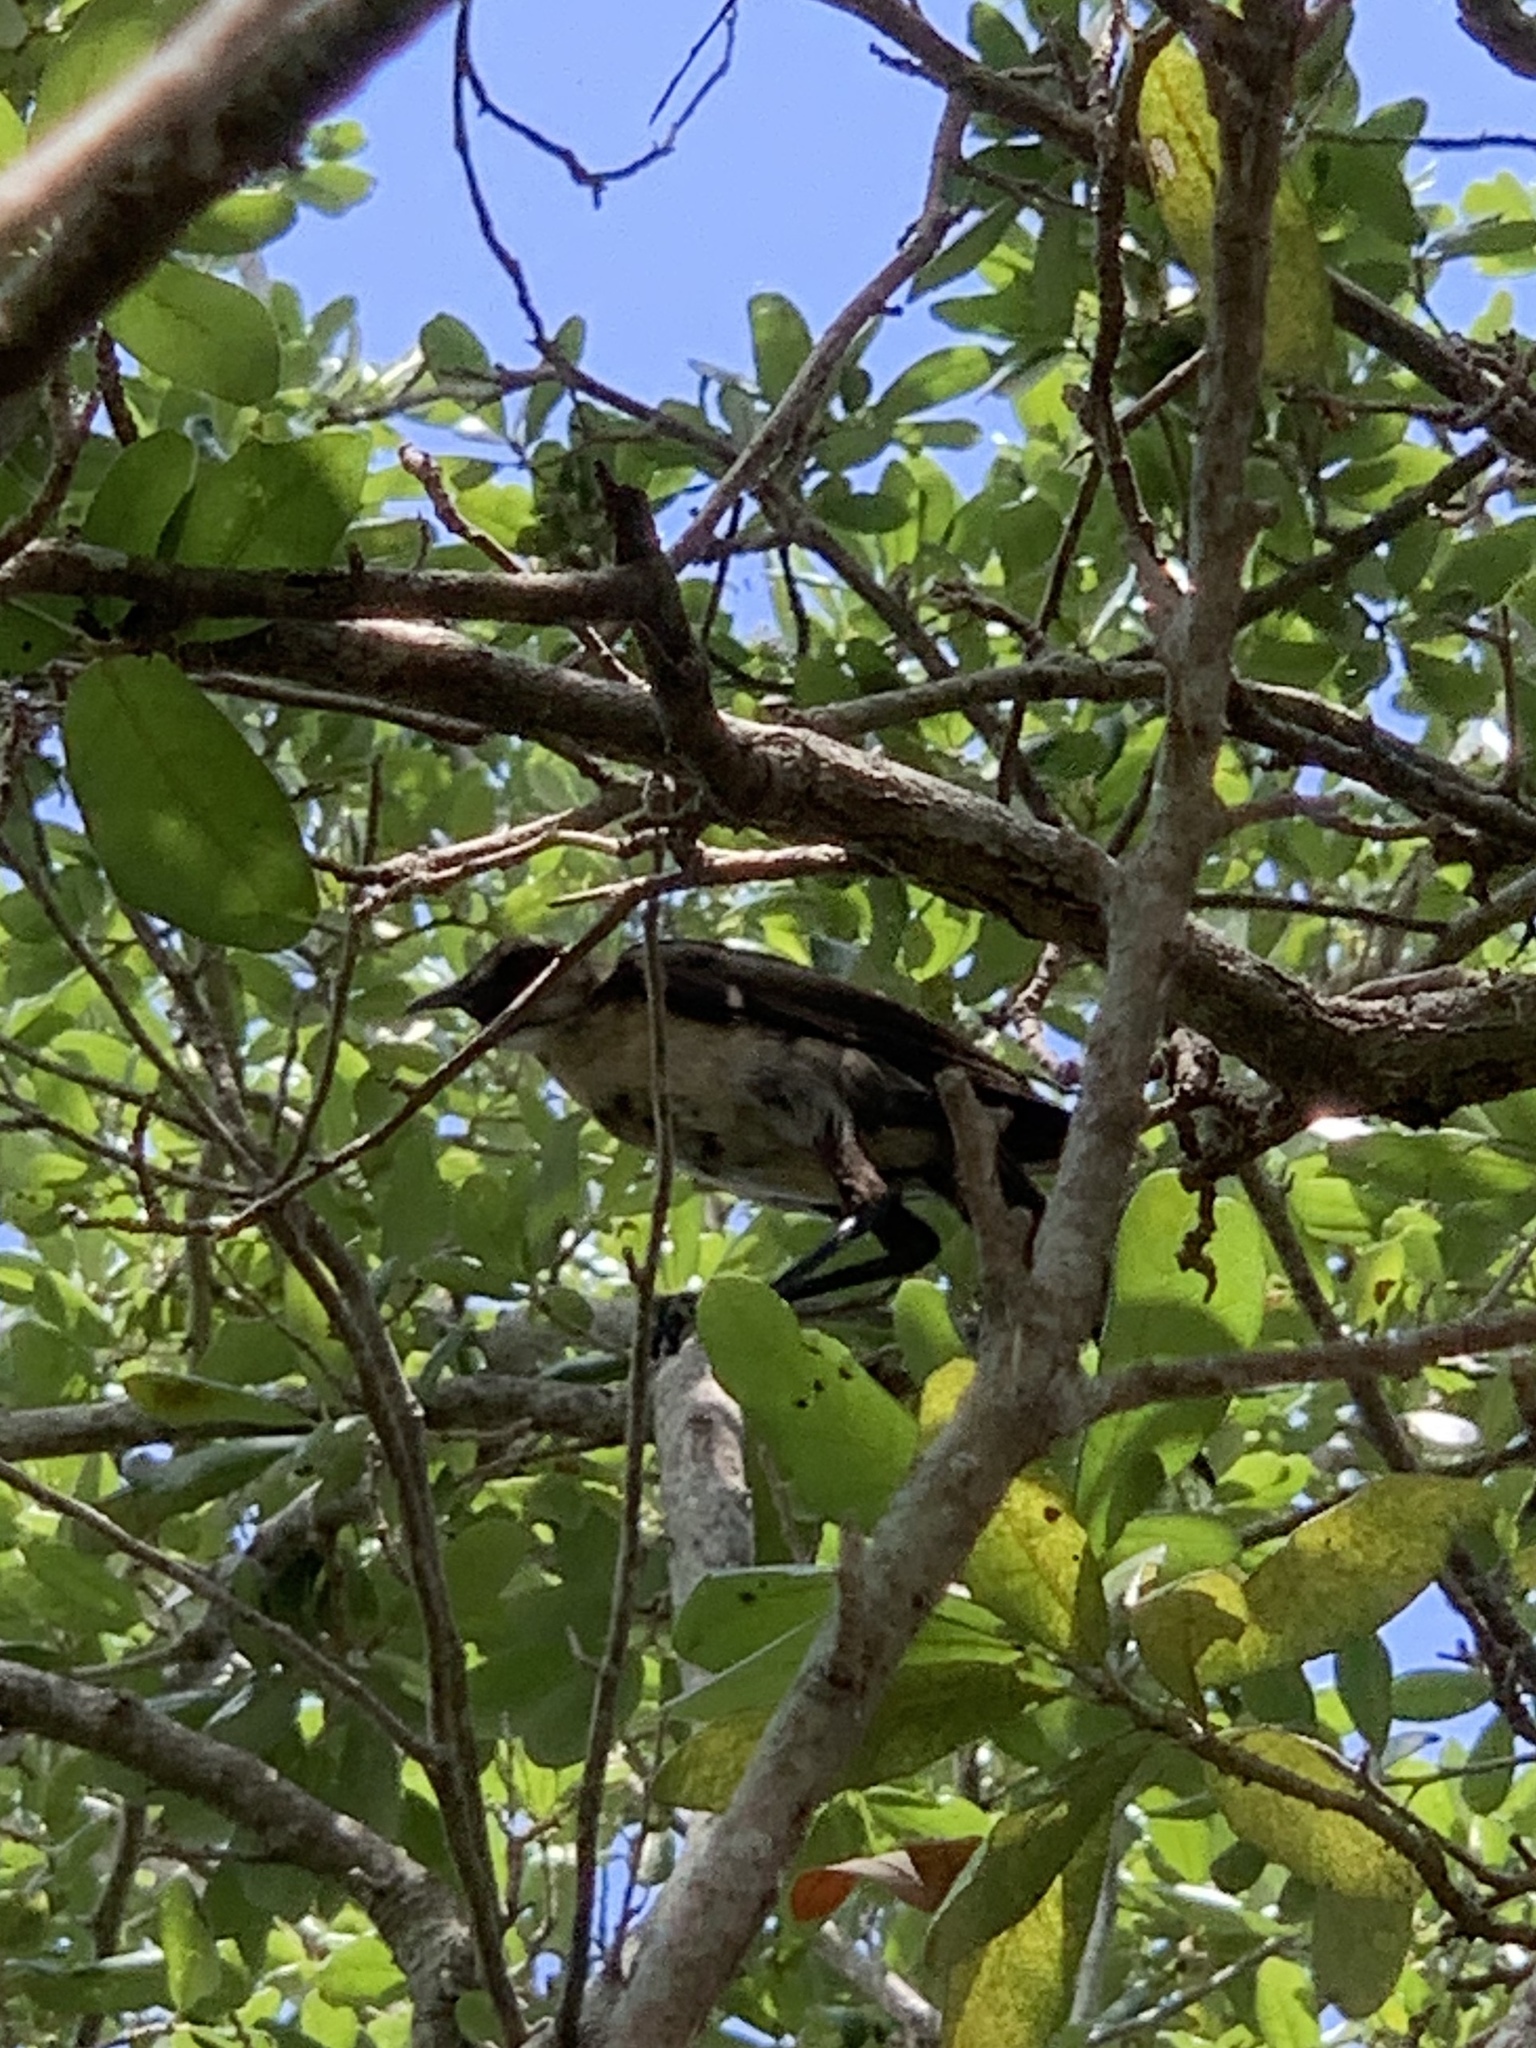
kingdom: Animalia
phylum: Chordata
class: Aves
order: Passeriformes
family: Icteridae
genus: Quiscalus
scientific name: Quiscalus major
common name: Boat-tailed grackle
